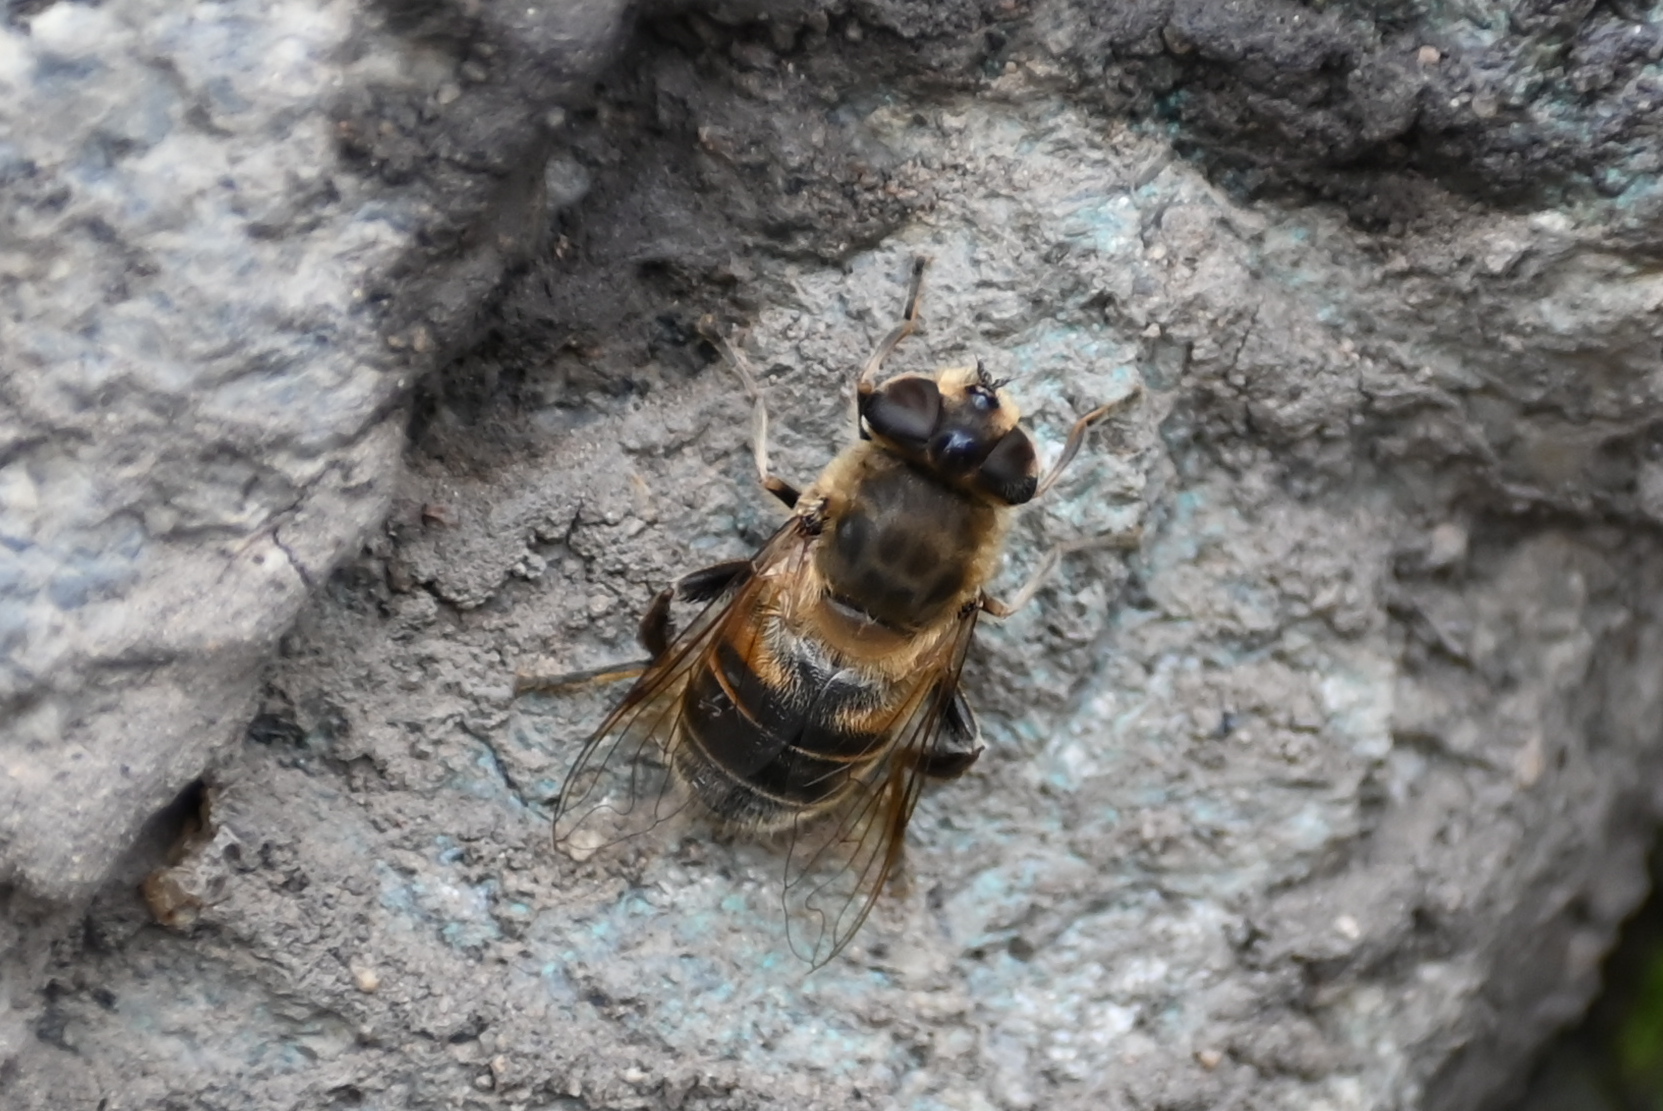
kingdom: Animalia
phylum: Arthropoda
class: Insecta
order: Diptera
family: Syrphidae
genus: Eristalis
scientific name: Eristalis tenax
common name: Drone fly
